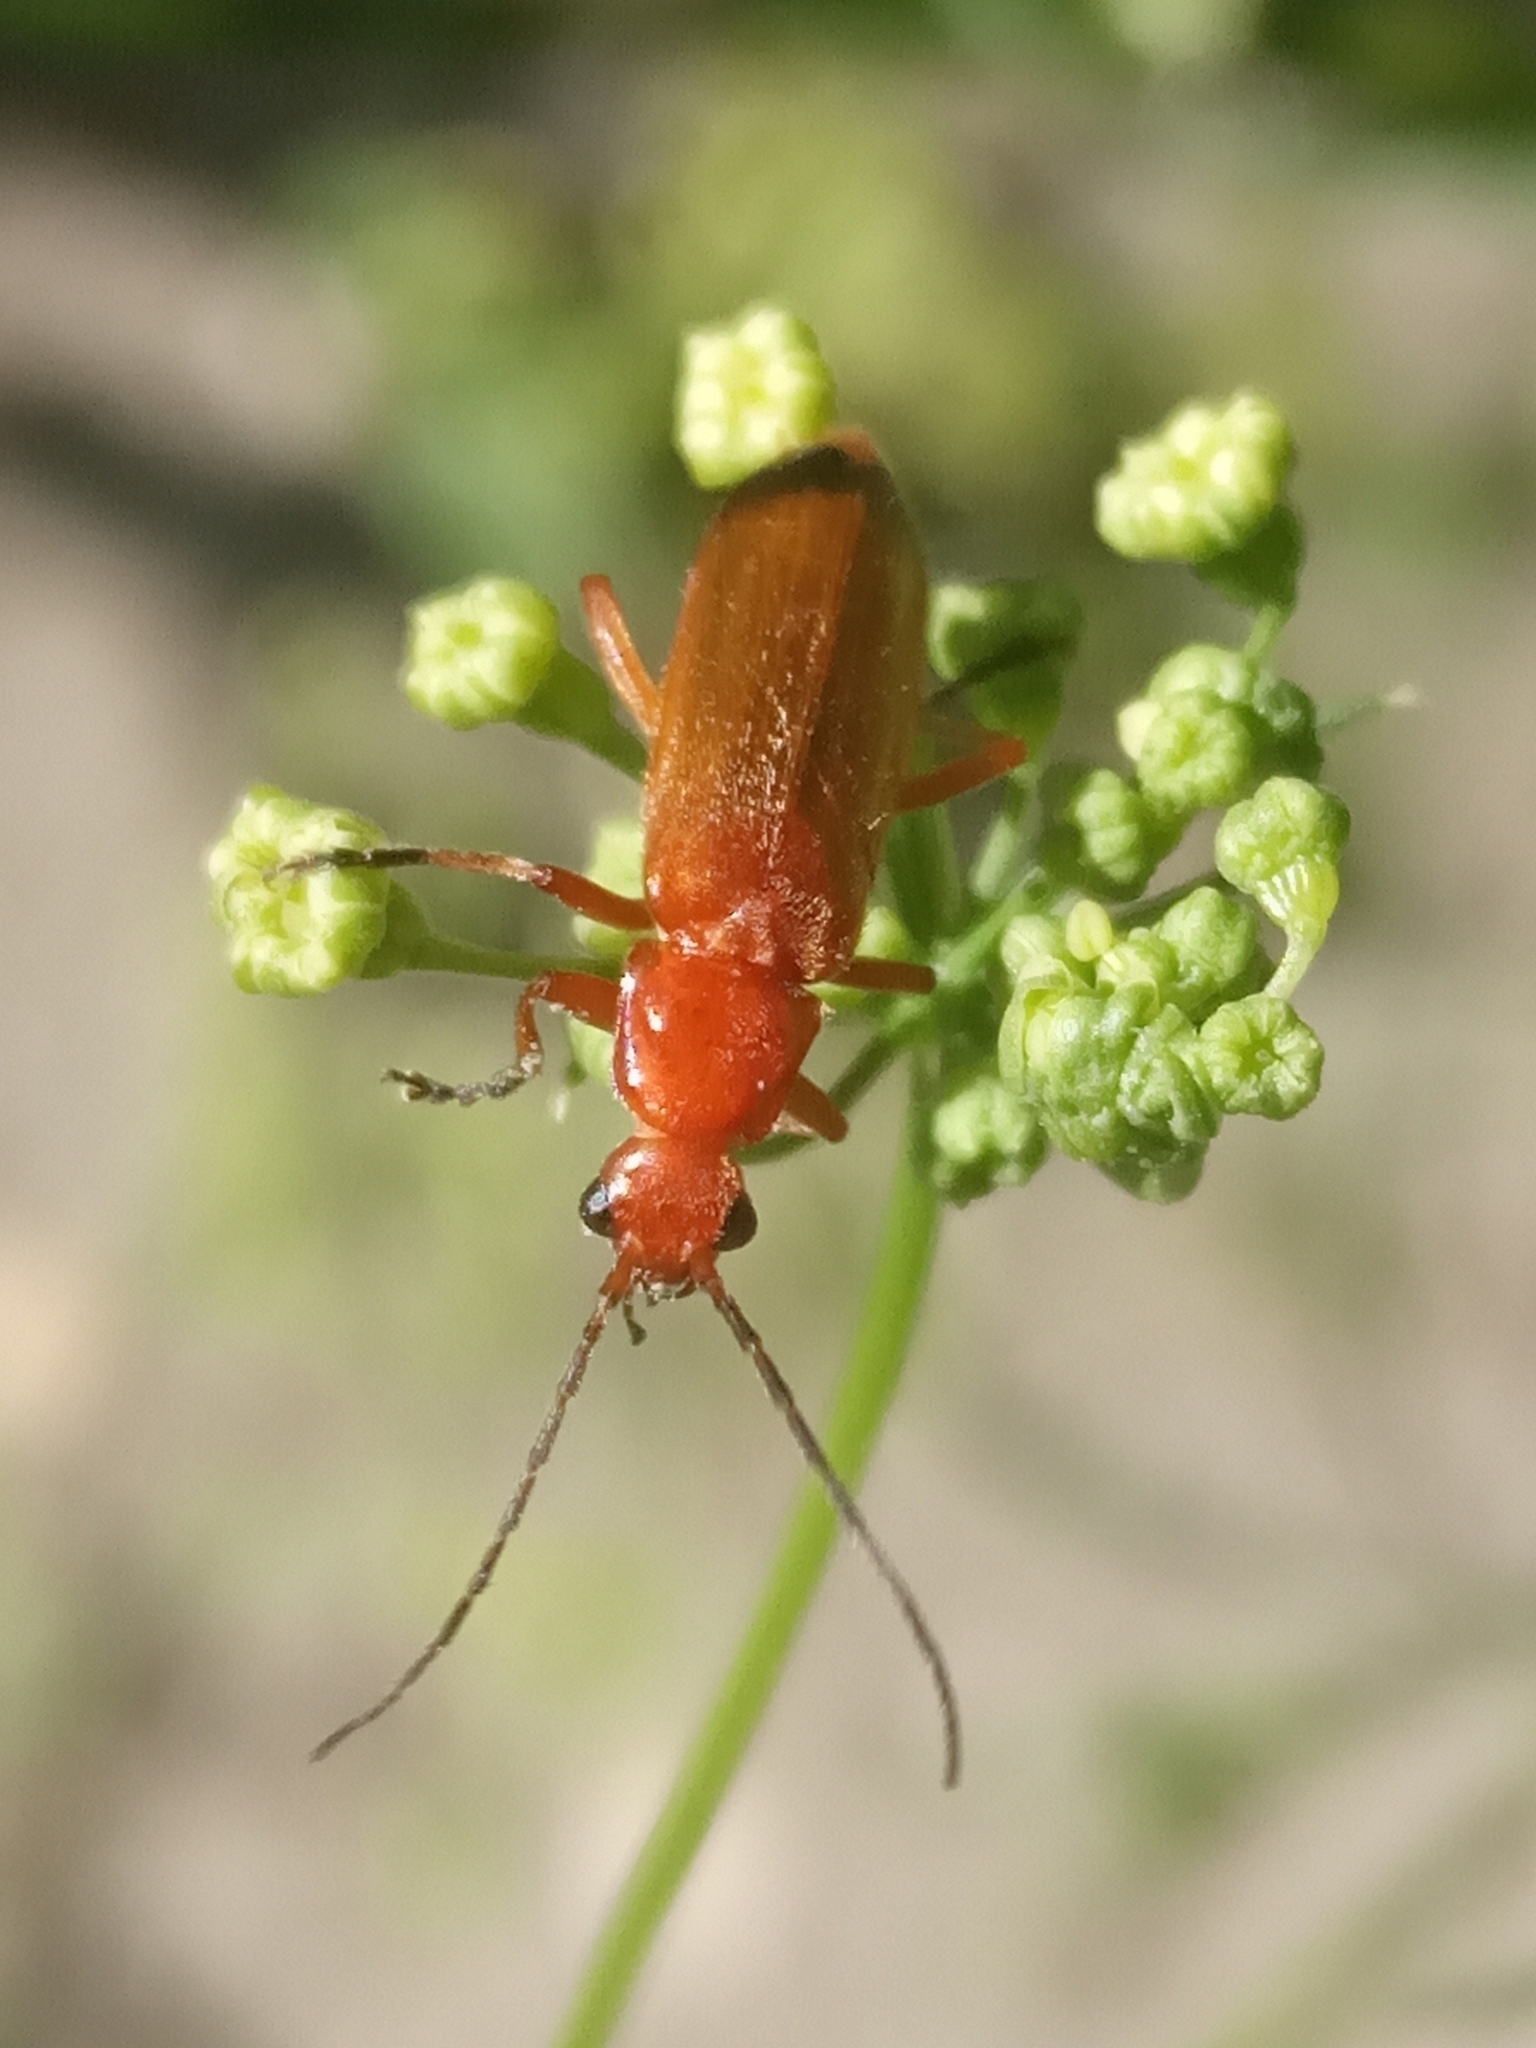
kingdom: Animalia
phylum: Arthropoda
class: Insecta
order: Coleoptera
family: Cantharidae
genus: Rhagonycha
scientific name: Rhagonycha fulva
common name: Common red soldier beetle
